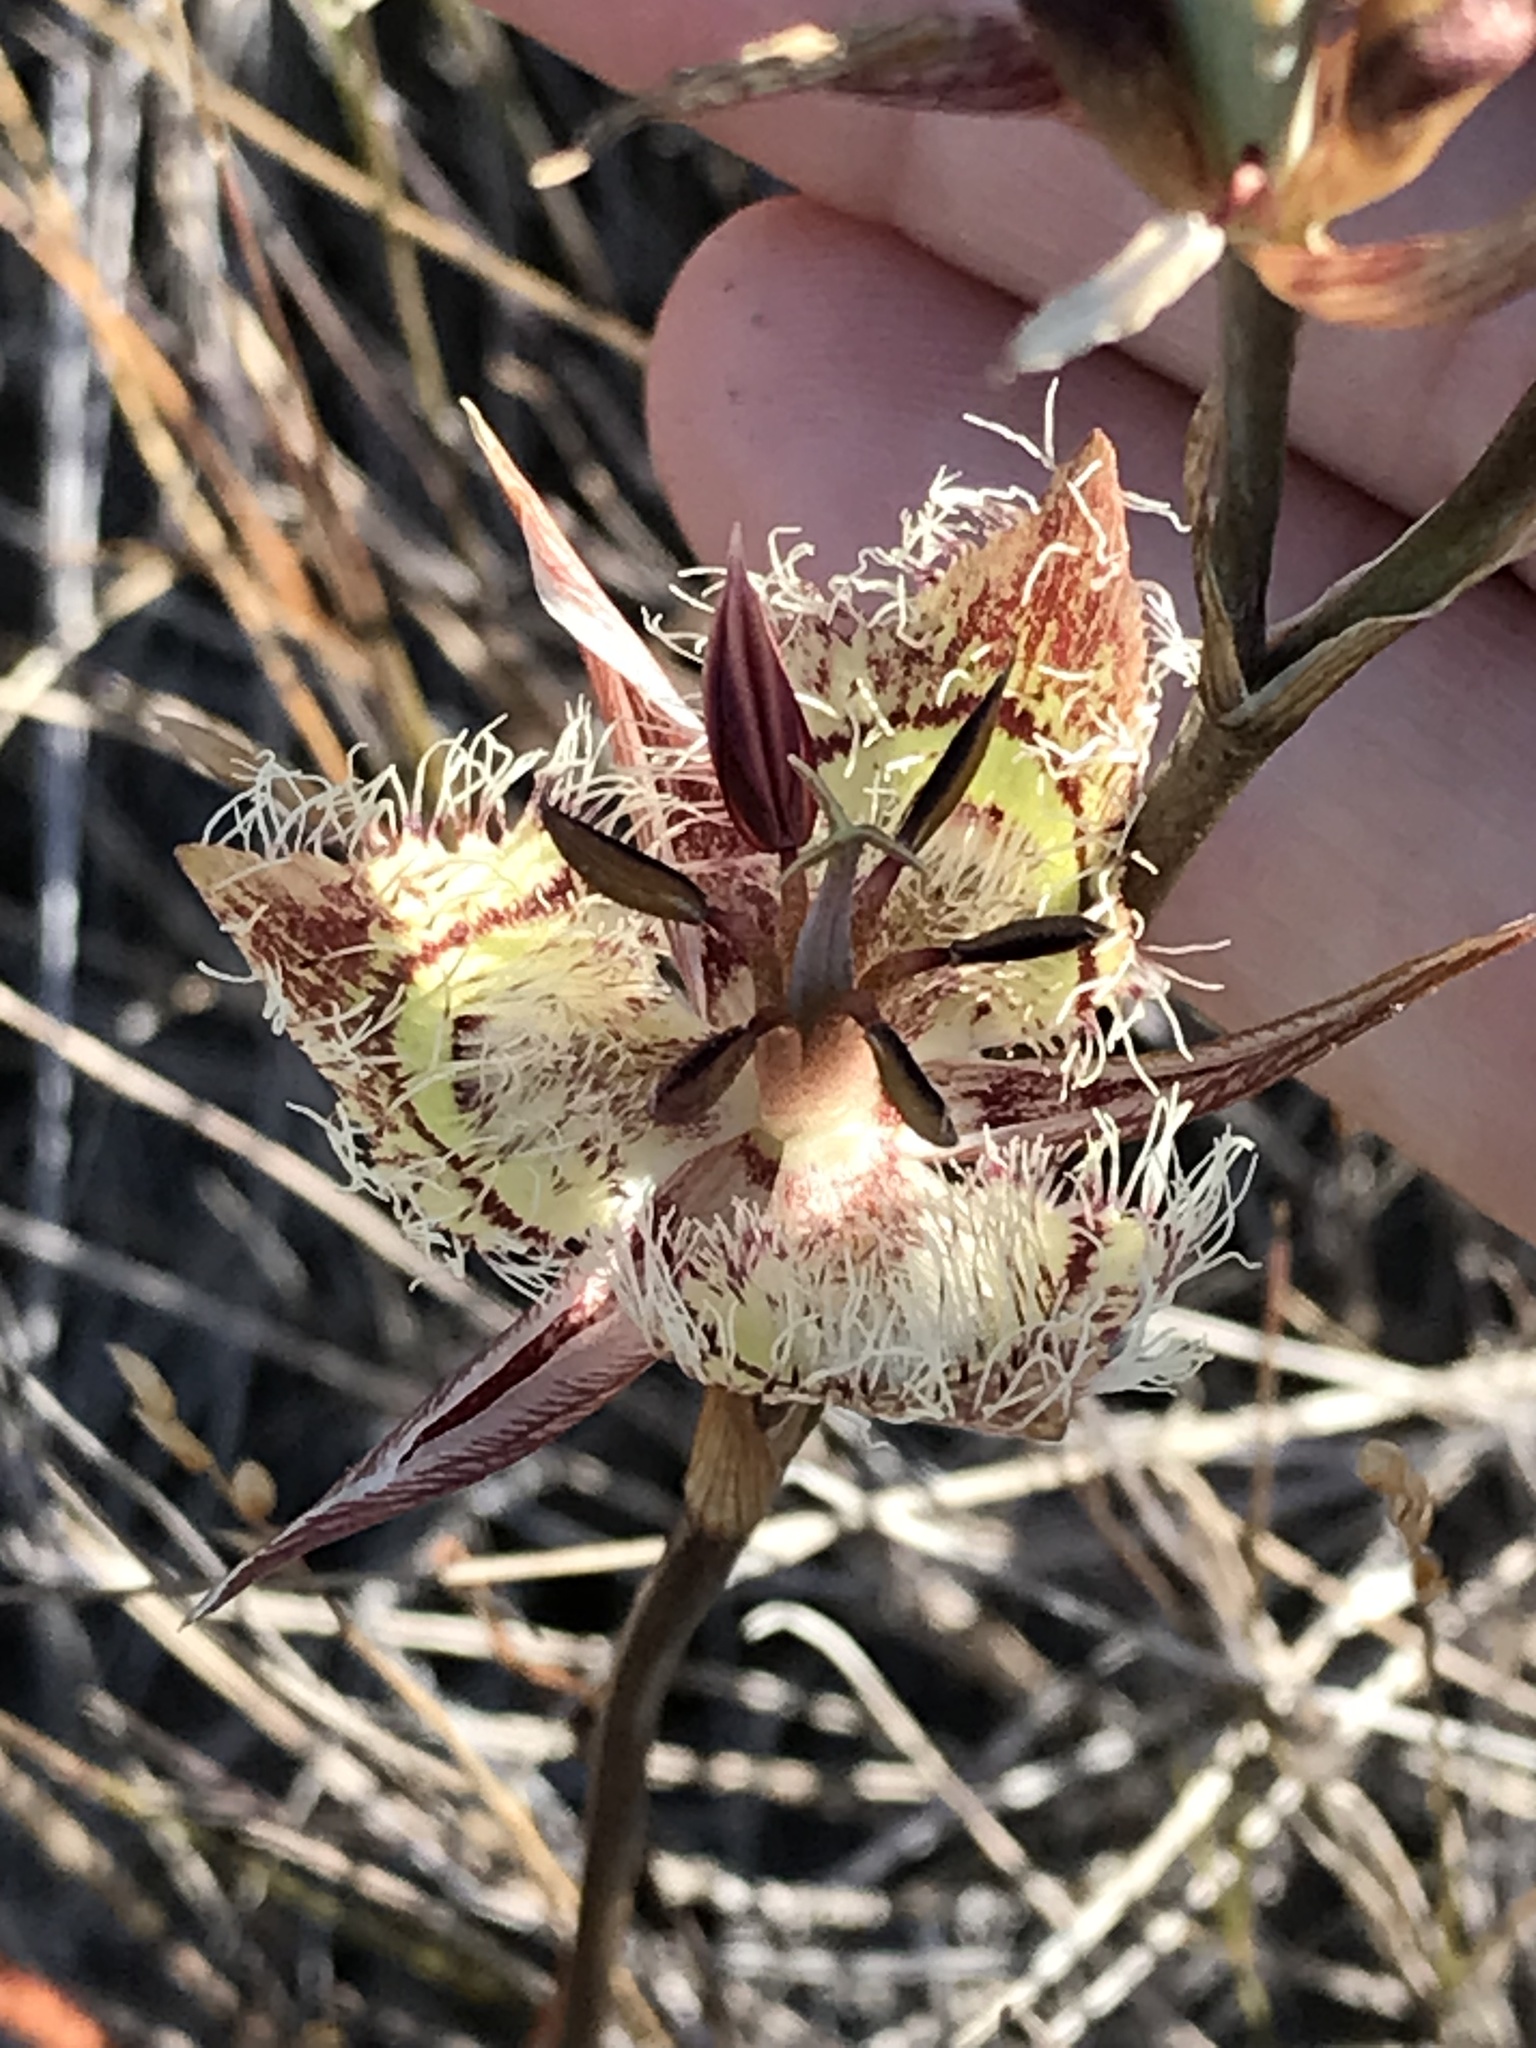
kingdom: Plantae
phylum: Tracheophyta
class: Liliopsida
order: Liliales
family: Liliaceae
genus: Calochortus
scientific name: Calochortus tiburonensis
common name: Tiburon mariposa-lily
